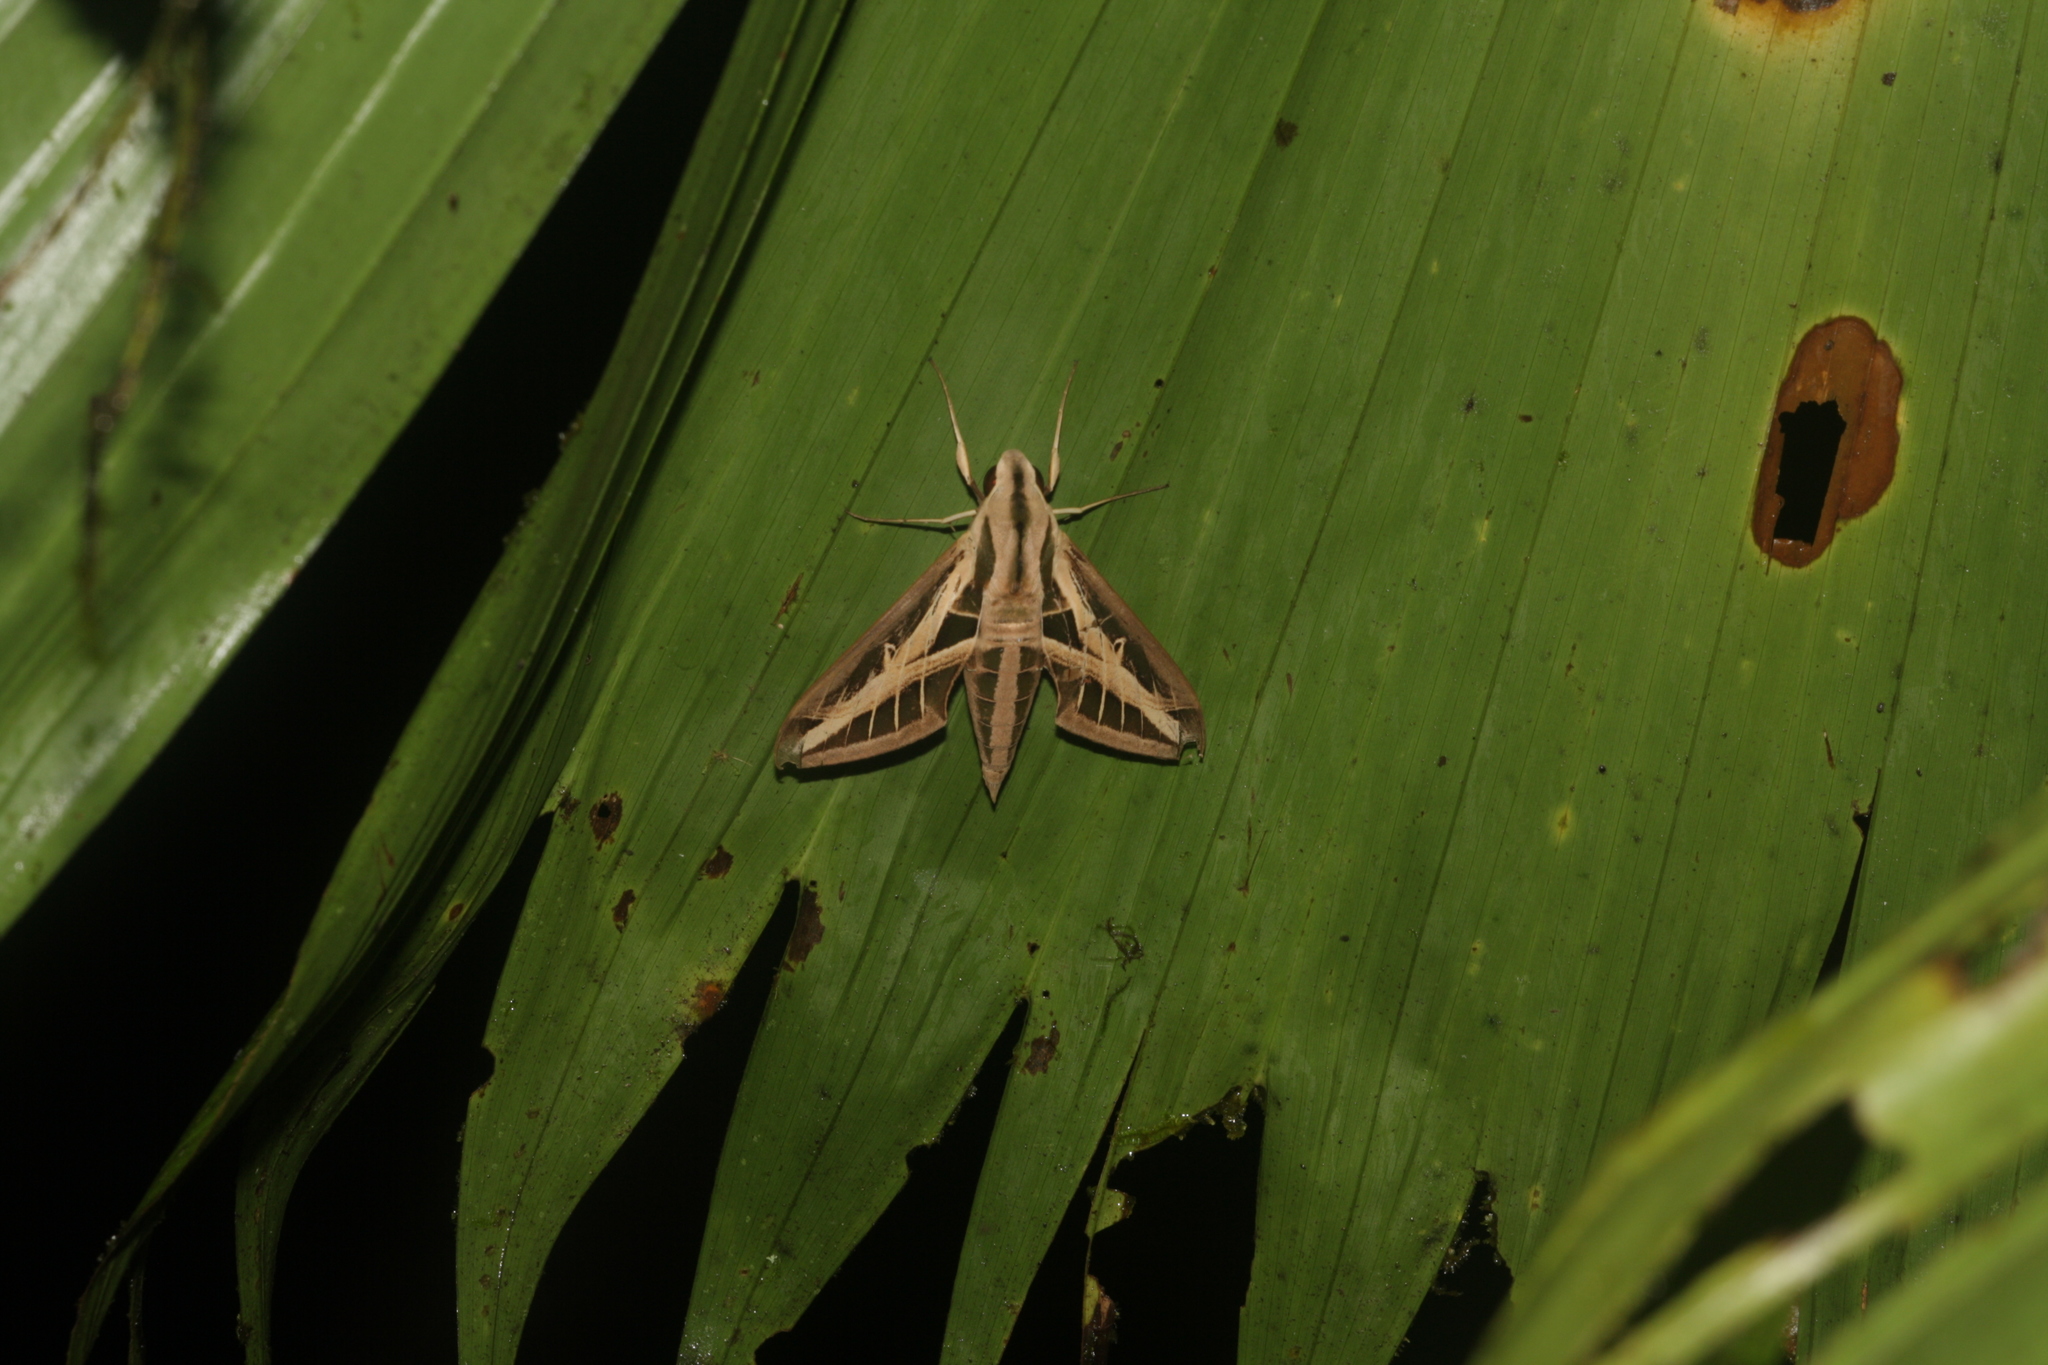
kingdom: Animalia
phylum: Arthropoda
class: Insecta
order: Lepidoptera
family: Sphingidae
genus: Eumorpha
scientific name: Eumorpha fasciatus
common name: Banded sphinx
